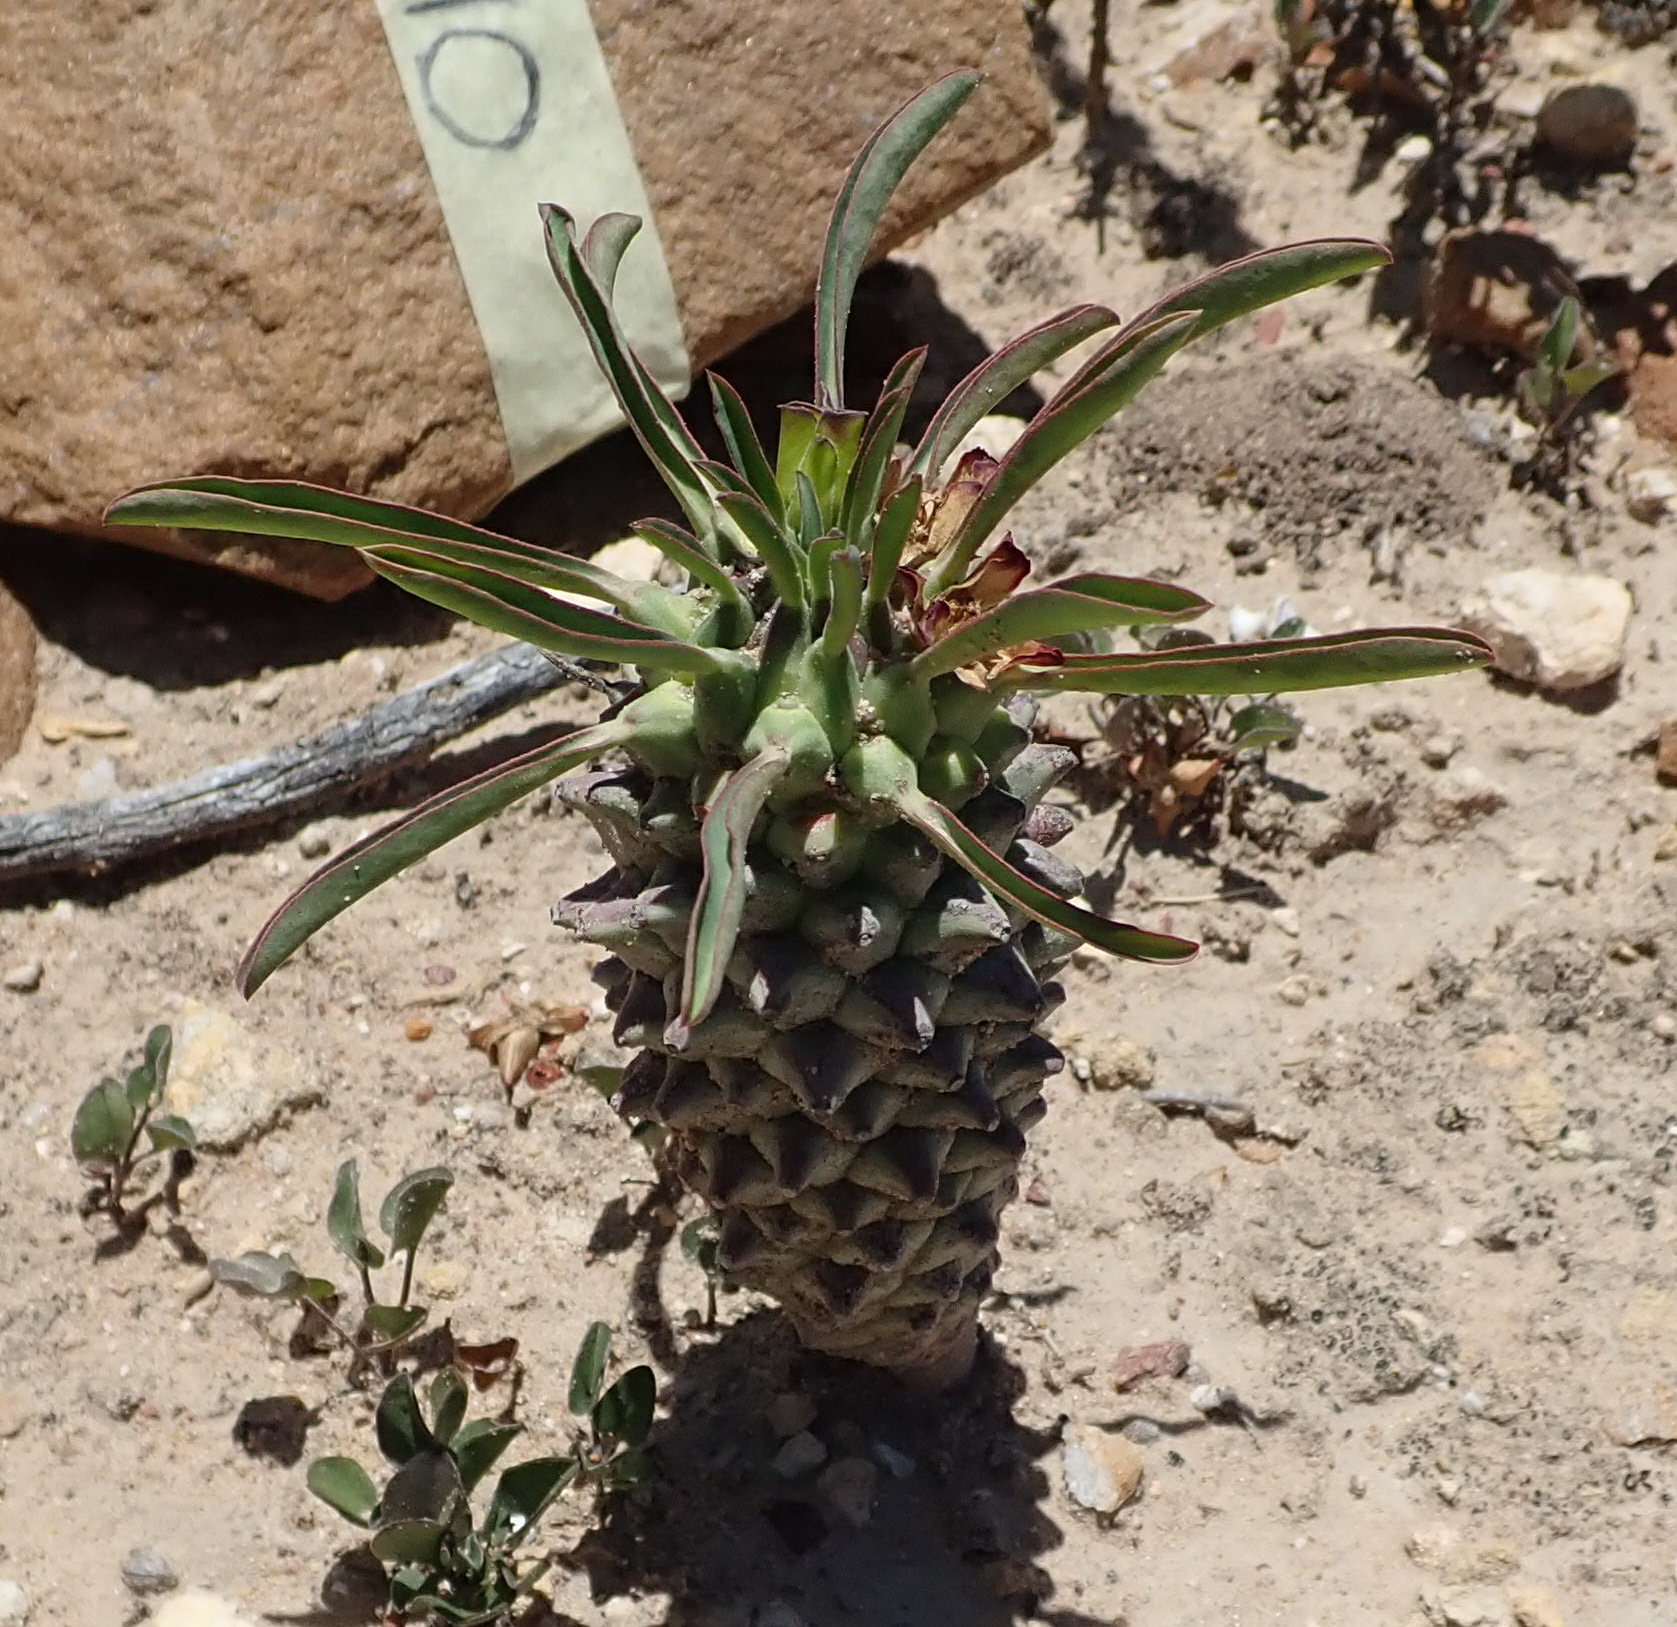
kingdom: Plantae
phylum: Tracheophyta
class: Magnoliopsida
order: Malpighiales
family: Euphorbiaceae
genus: Euphorbia
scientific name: Euphorbia clandestina
